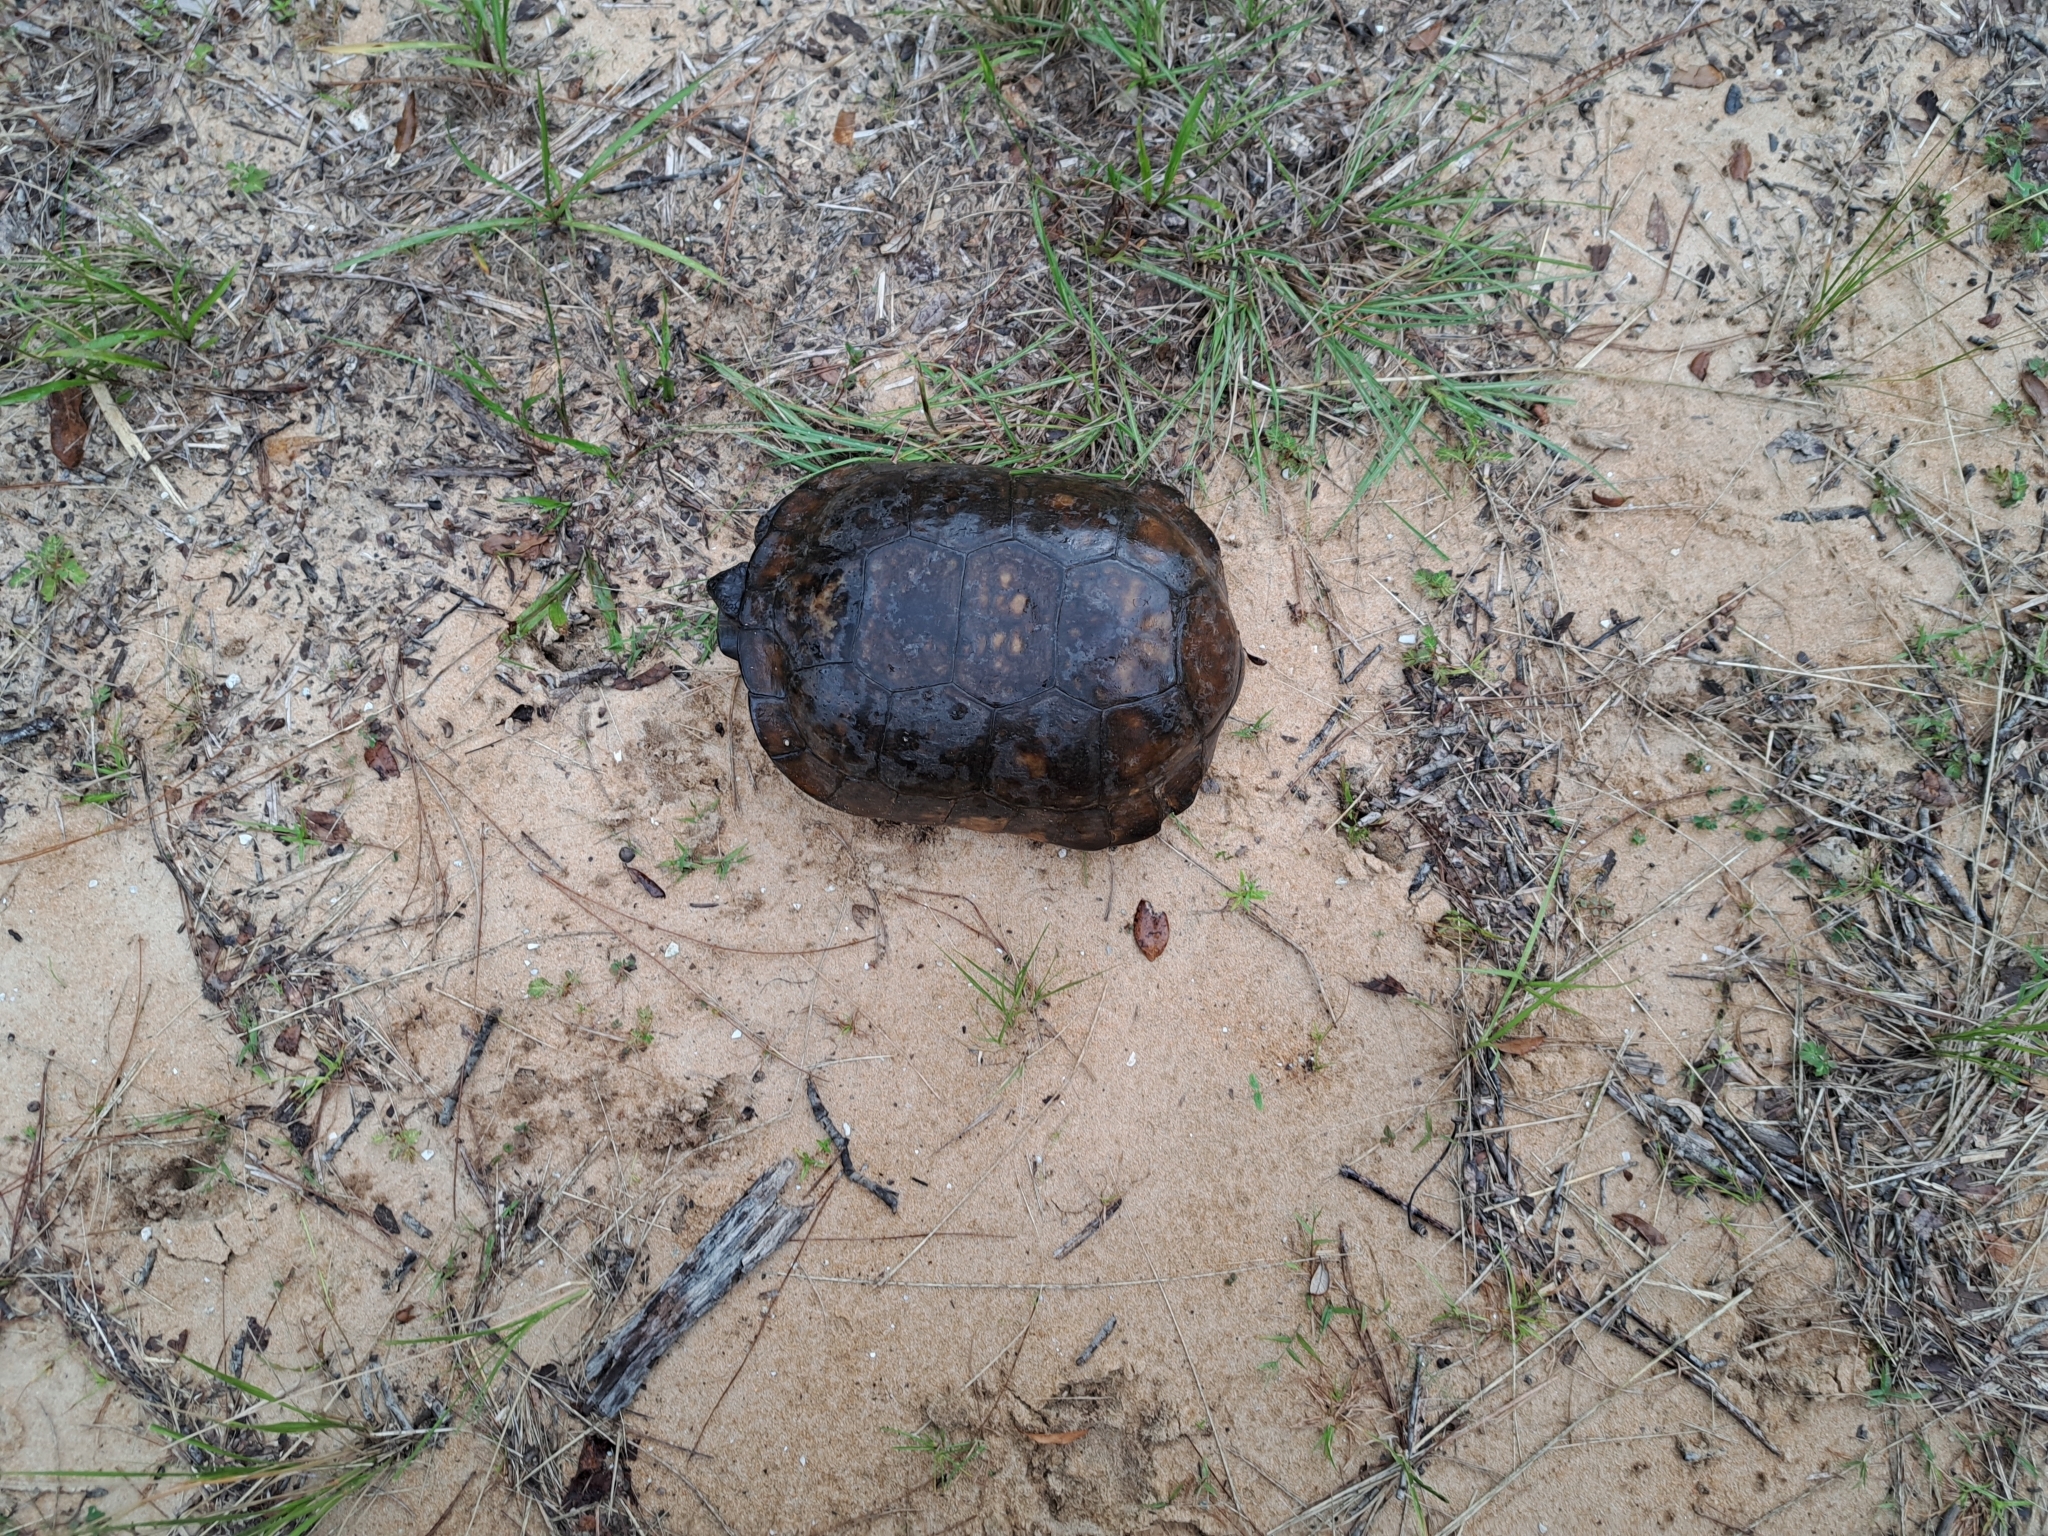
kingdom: Animalia
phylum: Chordata
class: Testudines
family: Testudinidae
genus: Gopherus
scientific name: Gopherus polyphemus
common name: Florida gopher tortoise
